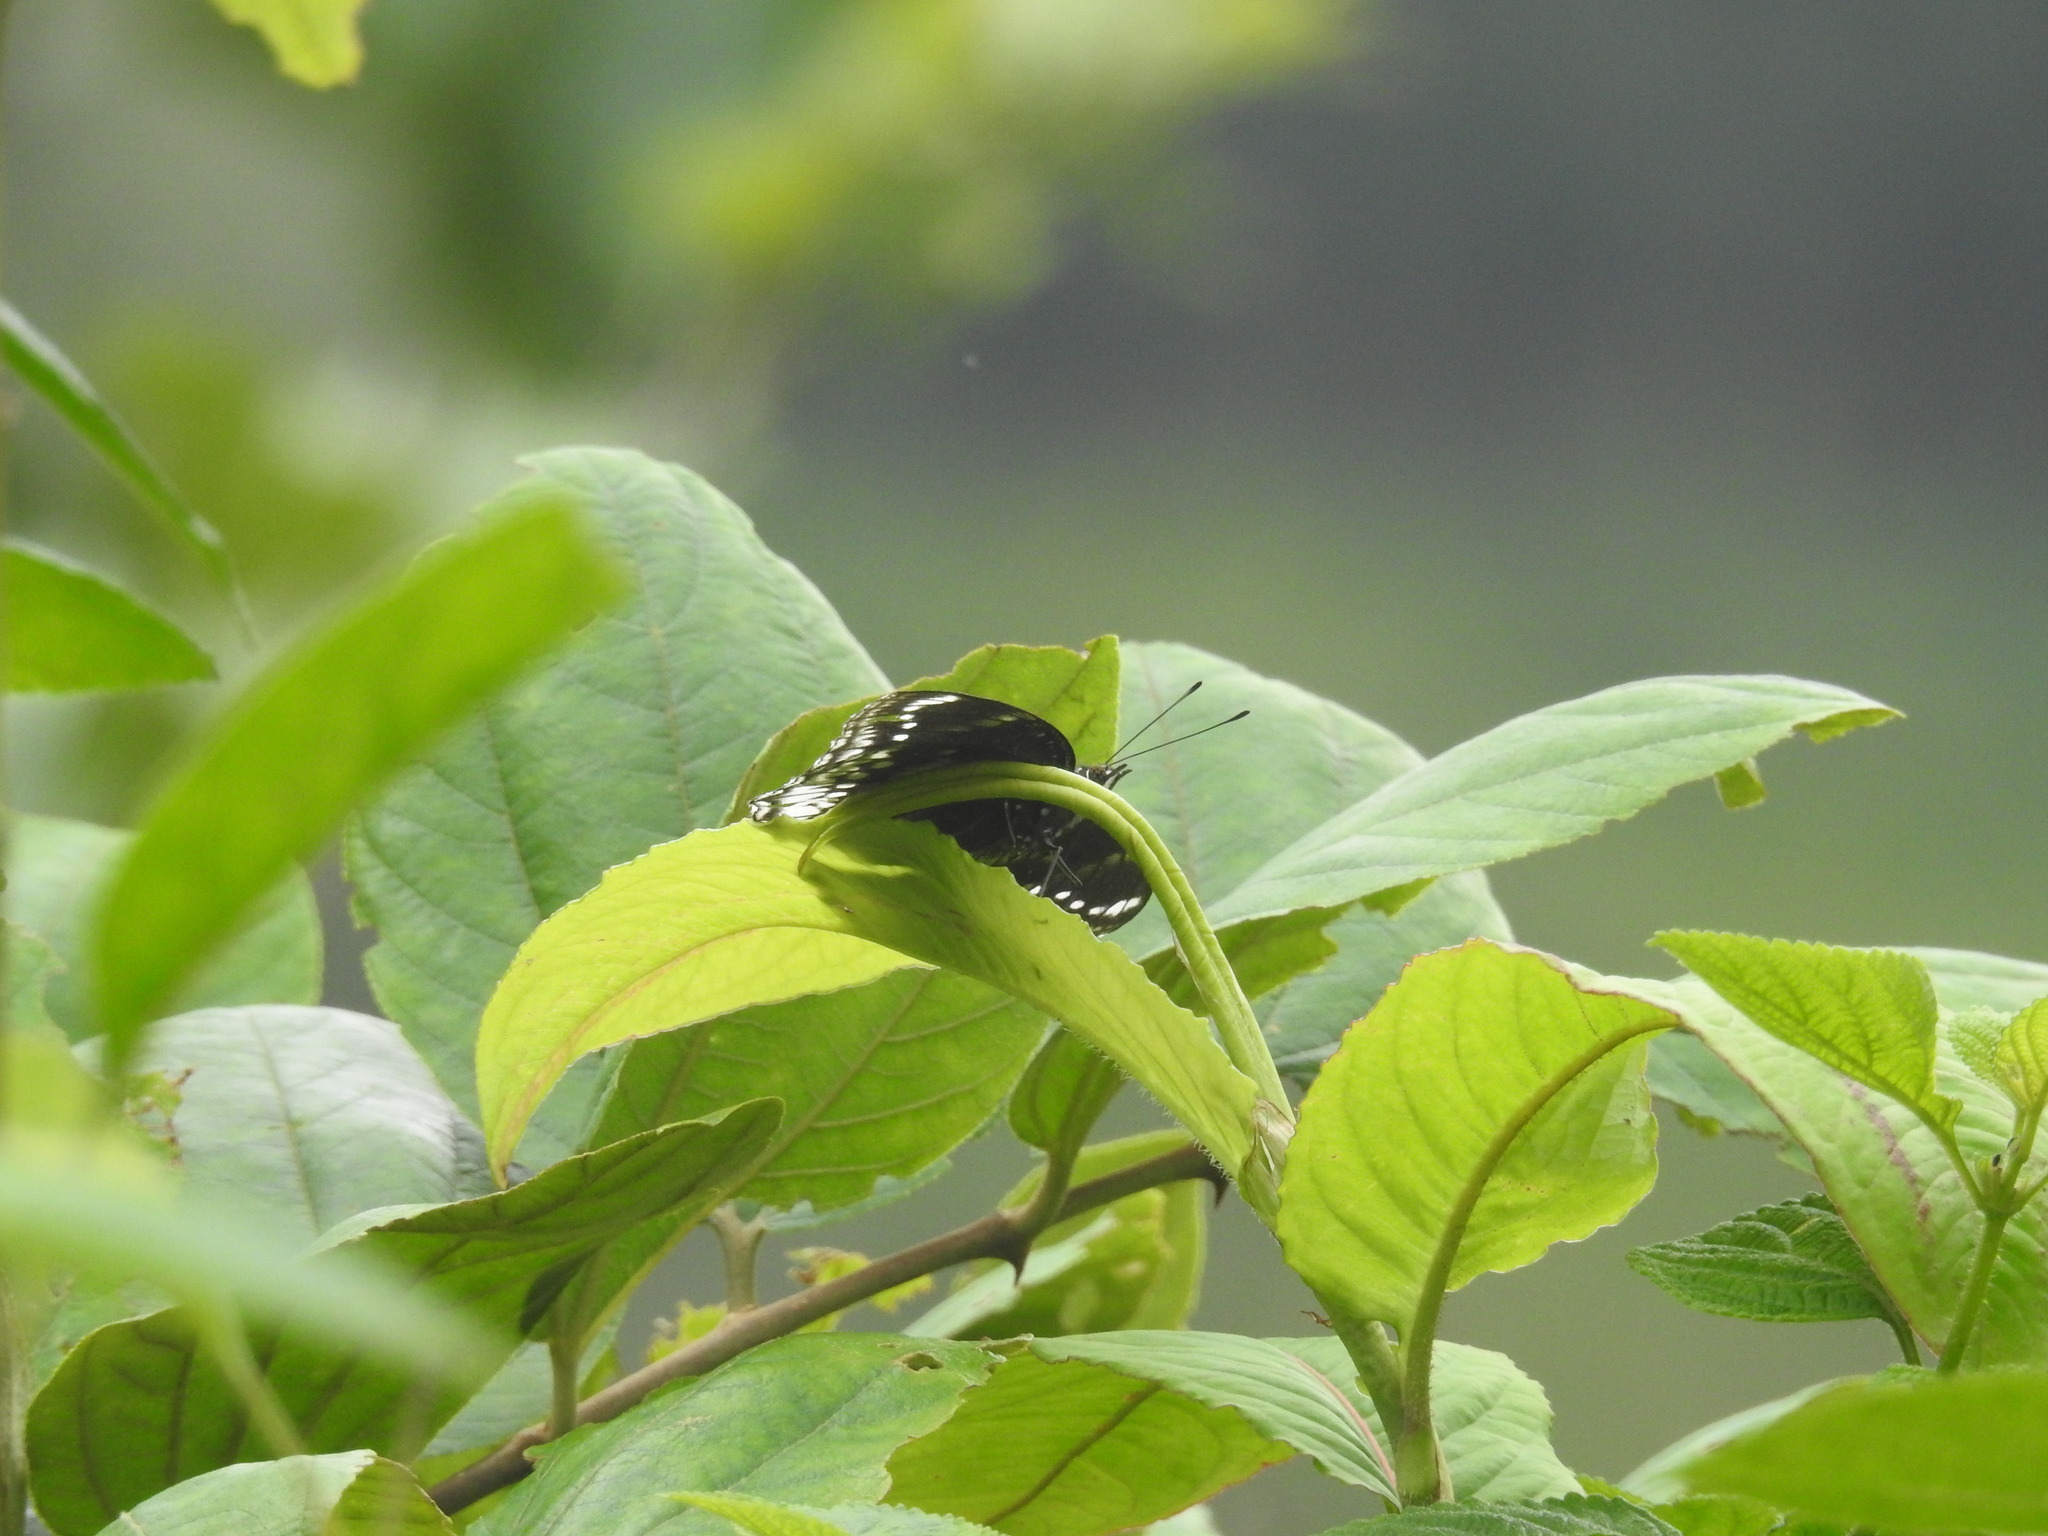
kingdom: Animalia
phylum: Arthropoda
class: Insecta
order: Lepidoptera
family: Nymphalidae
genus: Hypolimnas
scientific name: Hypolimnas bolina
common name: Great eggfly
